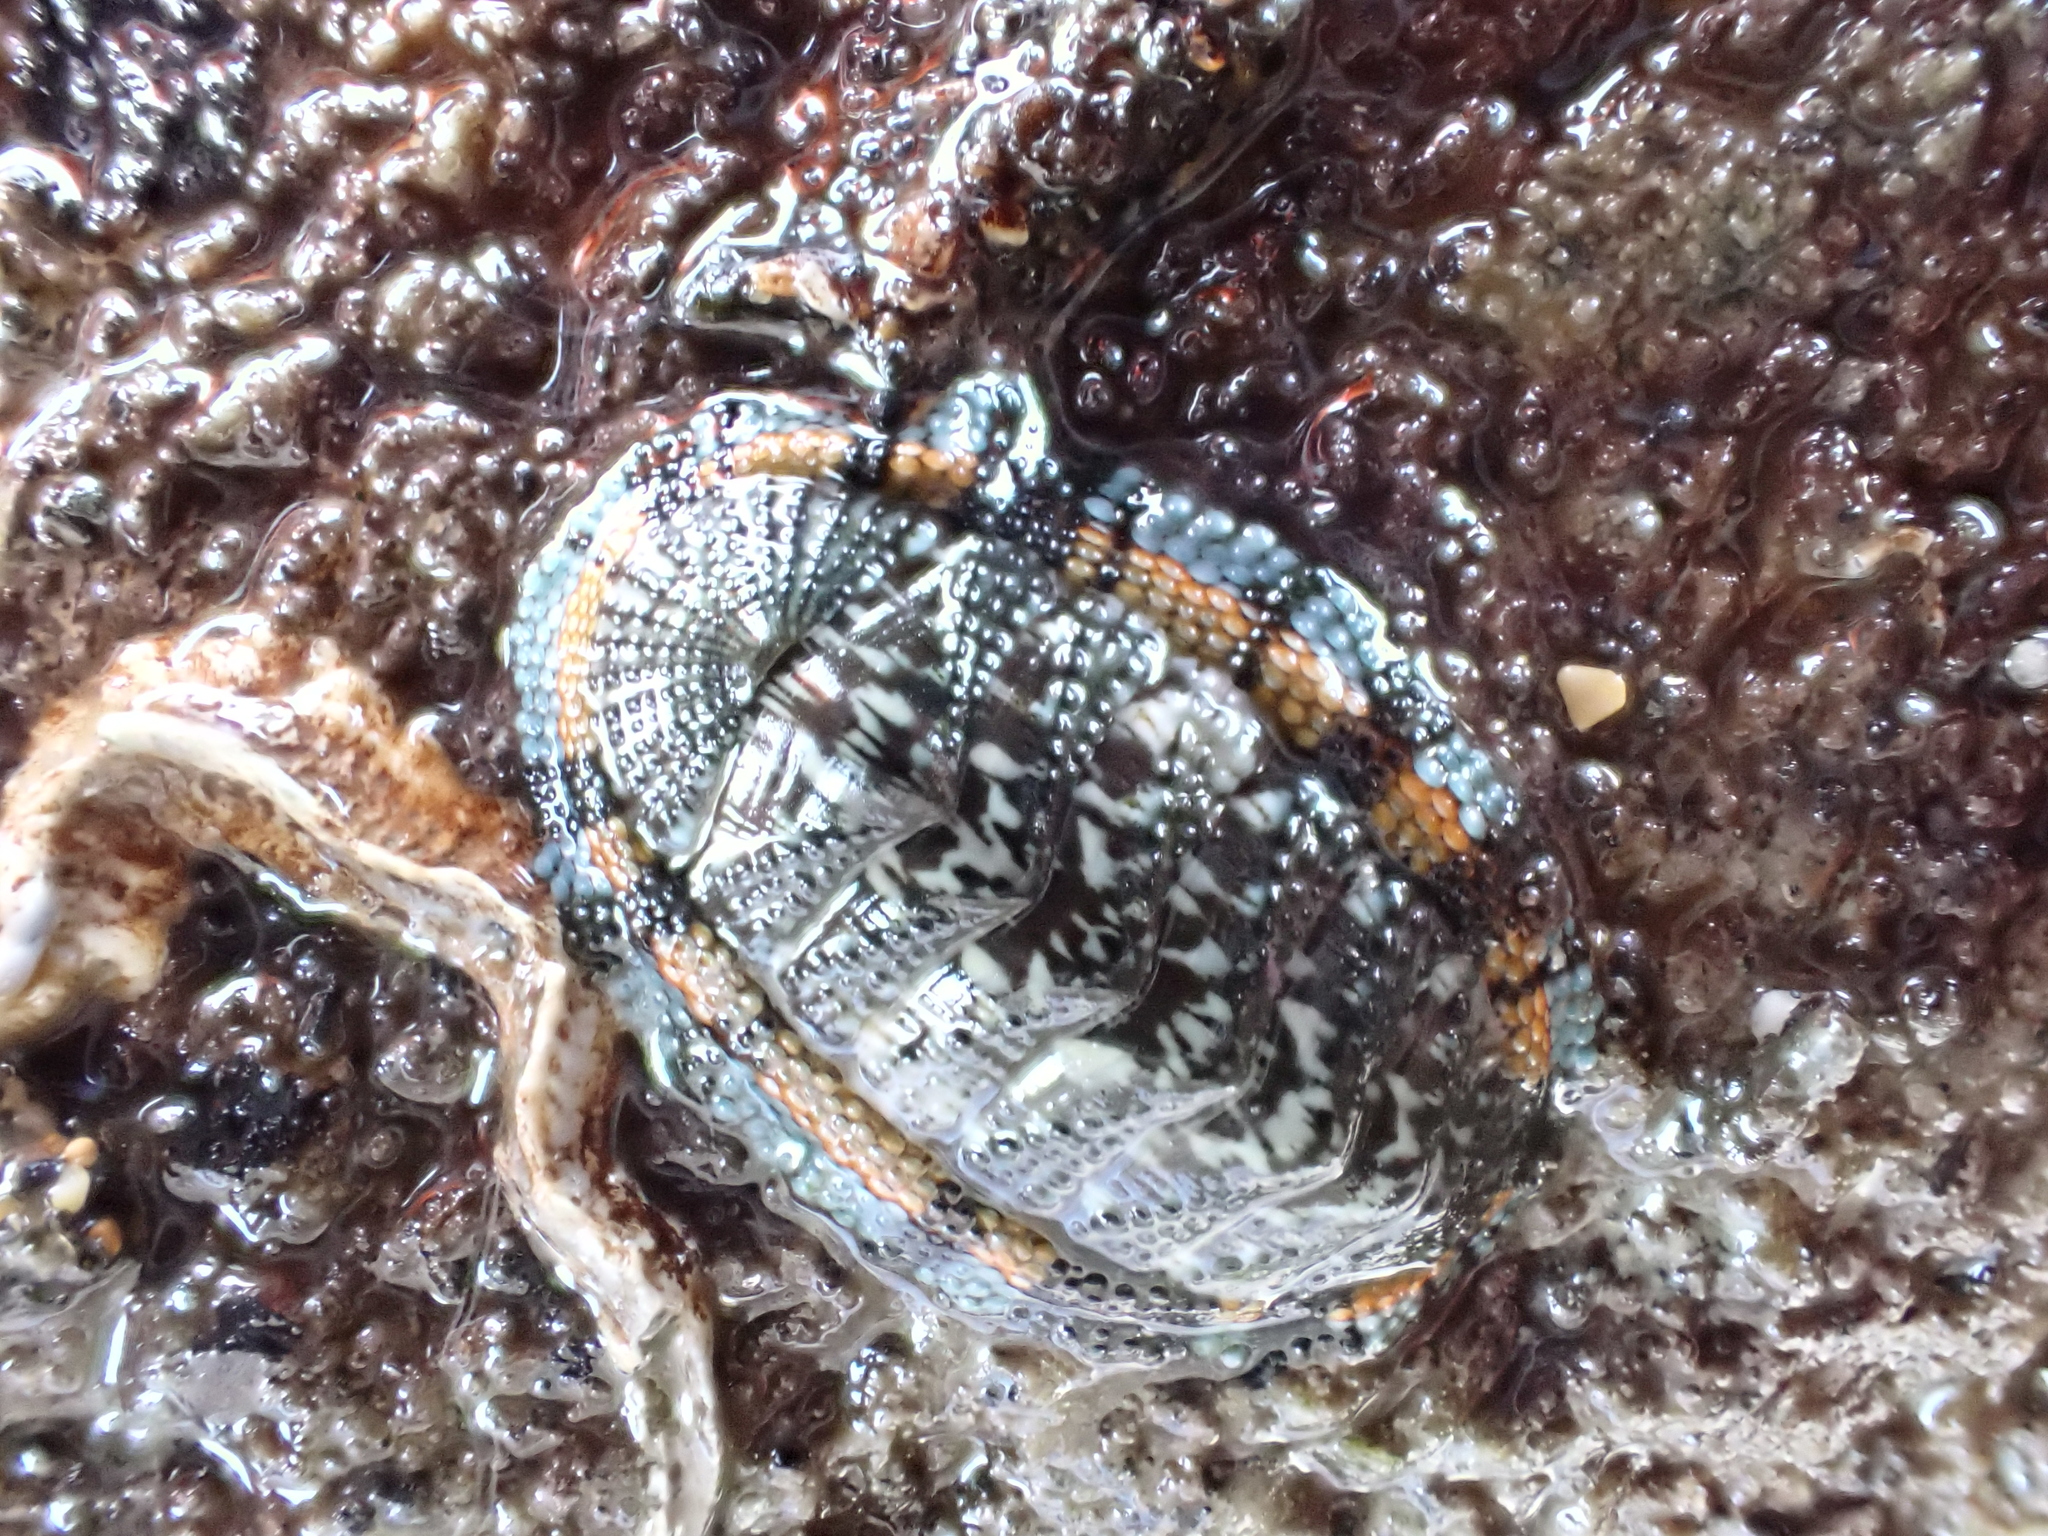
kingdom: Animalia
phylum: Mollusca
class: Polyplacophora
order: Chitonida
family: Chitonidae
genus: Sypharochiton
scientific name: Sypharochiton sinclairi
